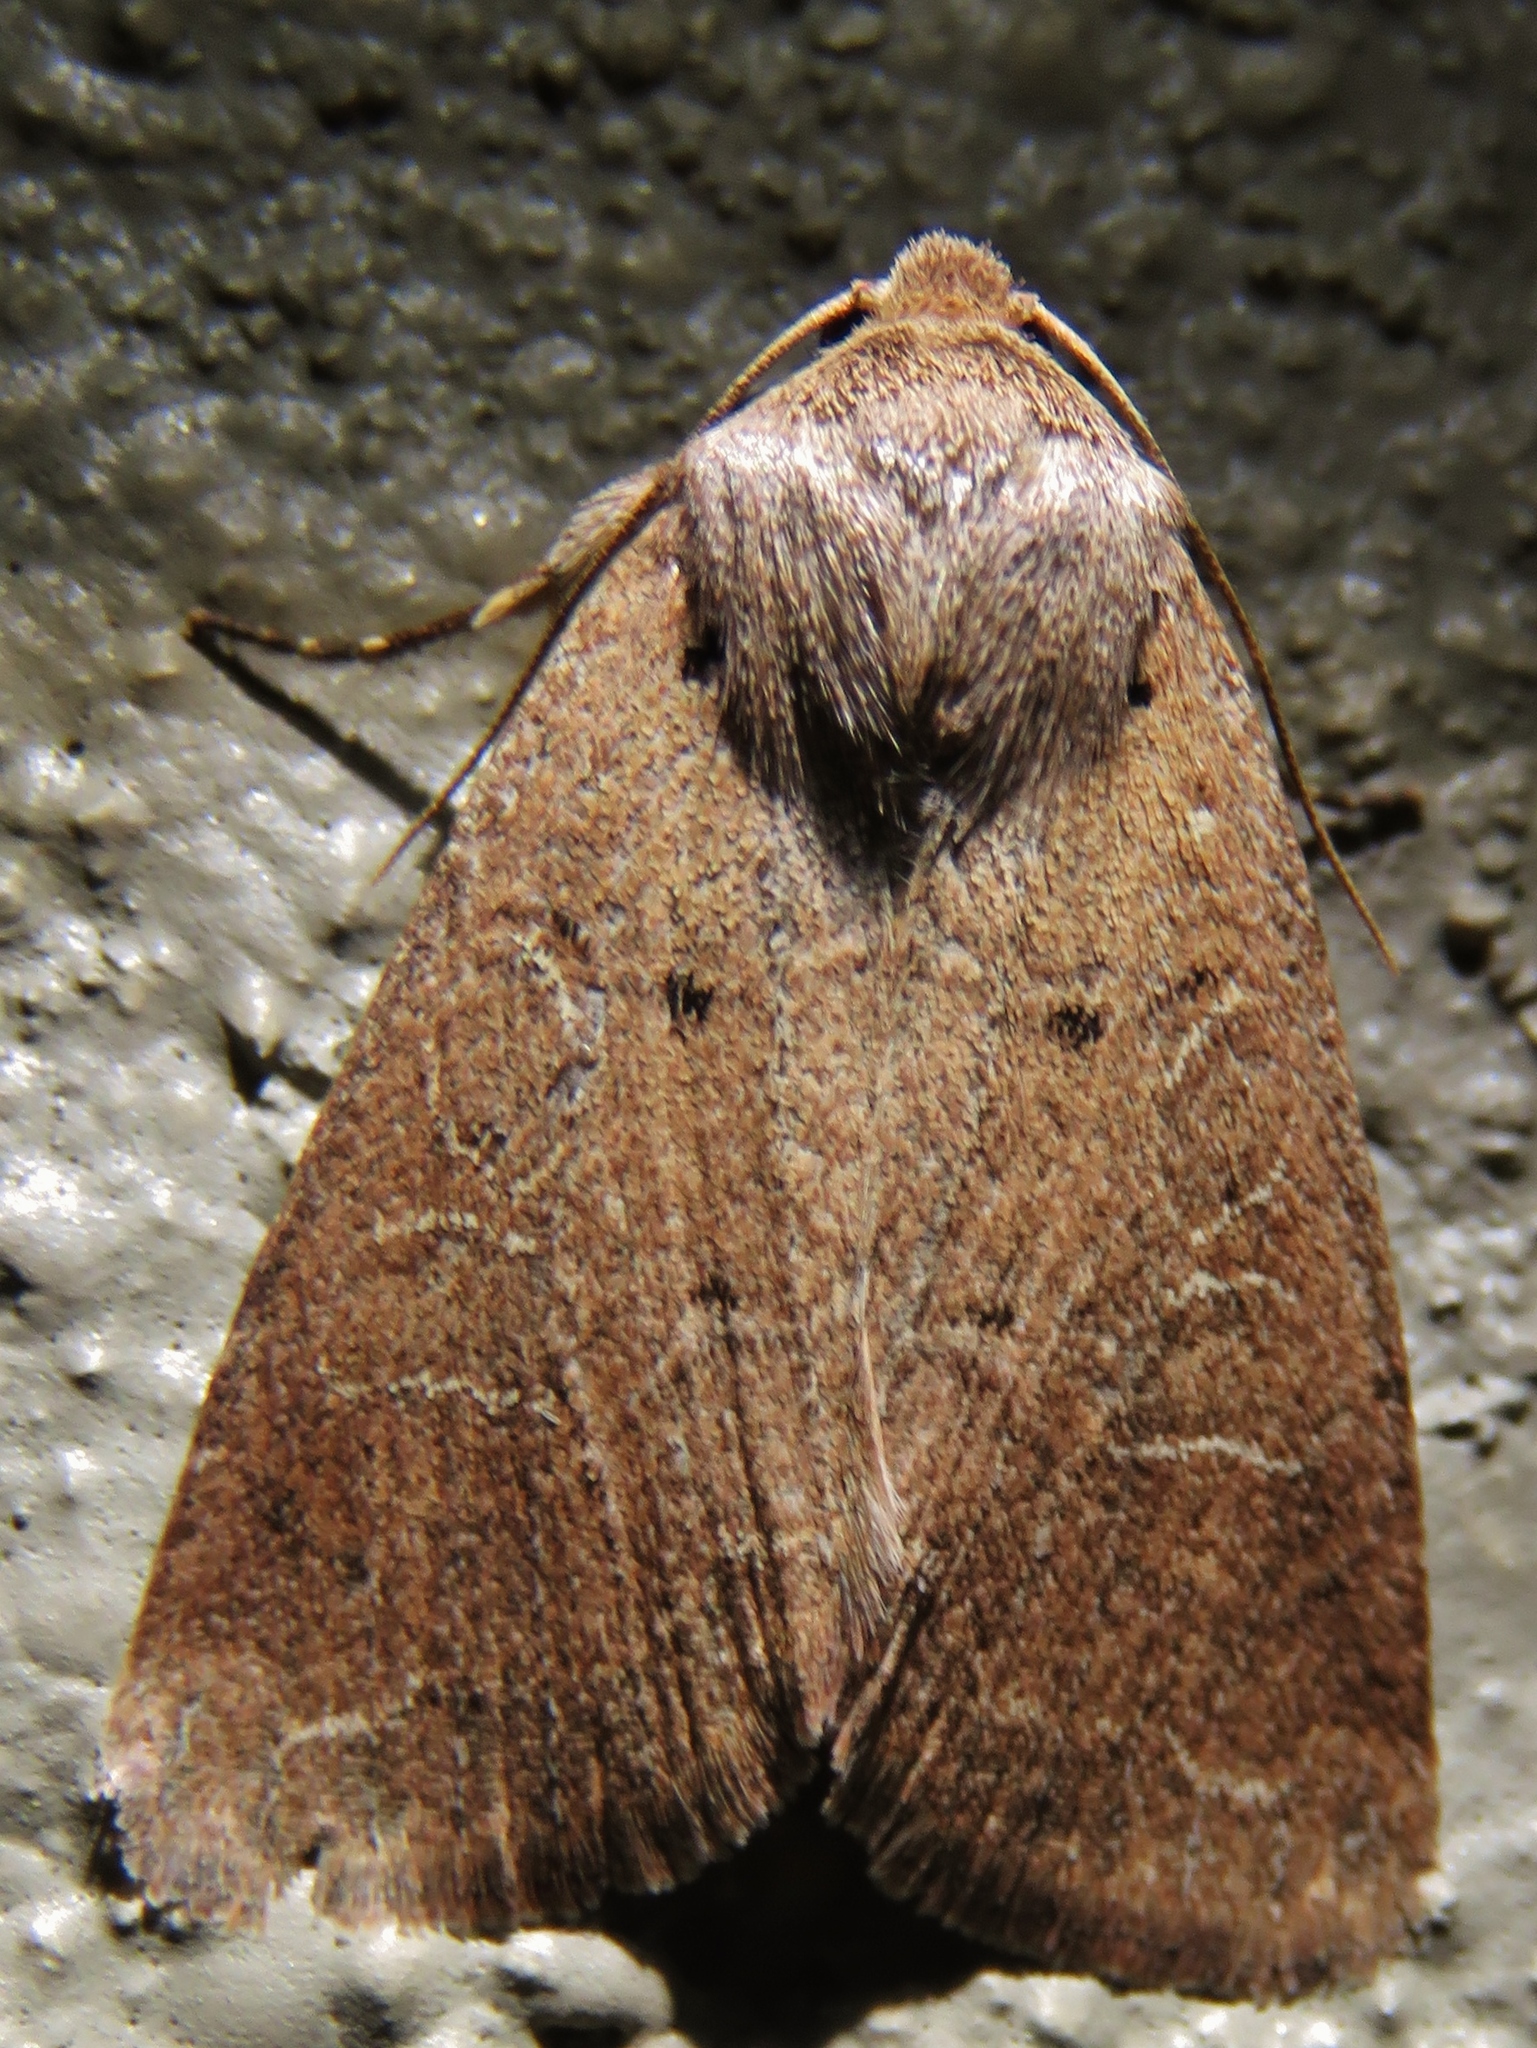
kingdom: Animalia
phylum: Arthropoda
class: Insecta
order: Lepidoptera
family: Noctuidae
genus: Kocakina
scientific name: Kocakina fidelis
